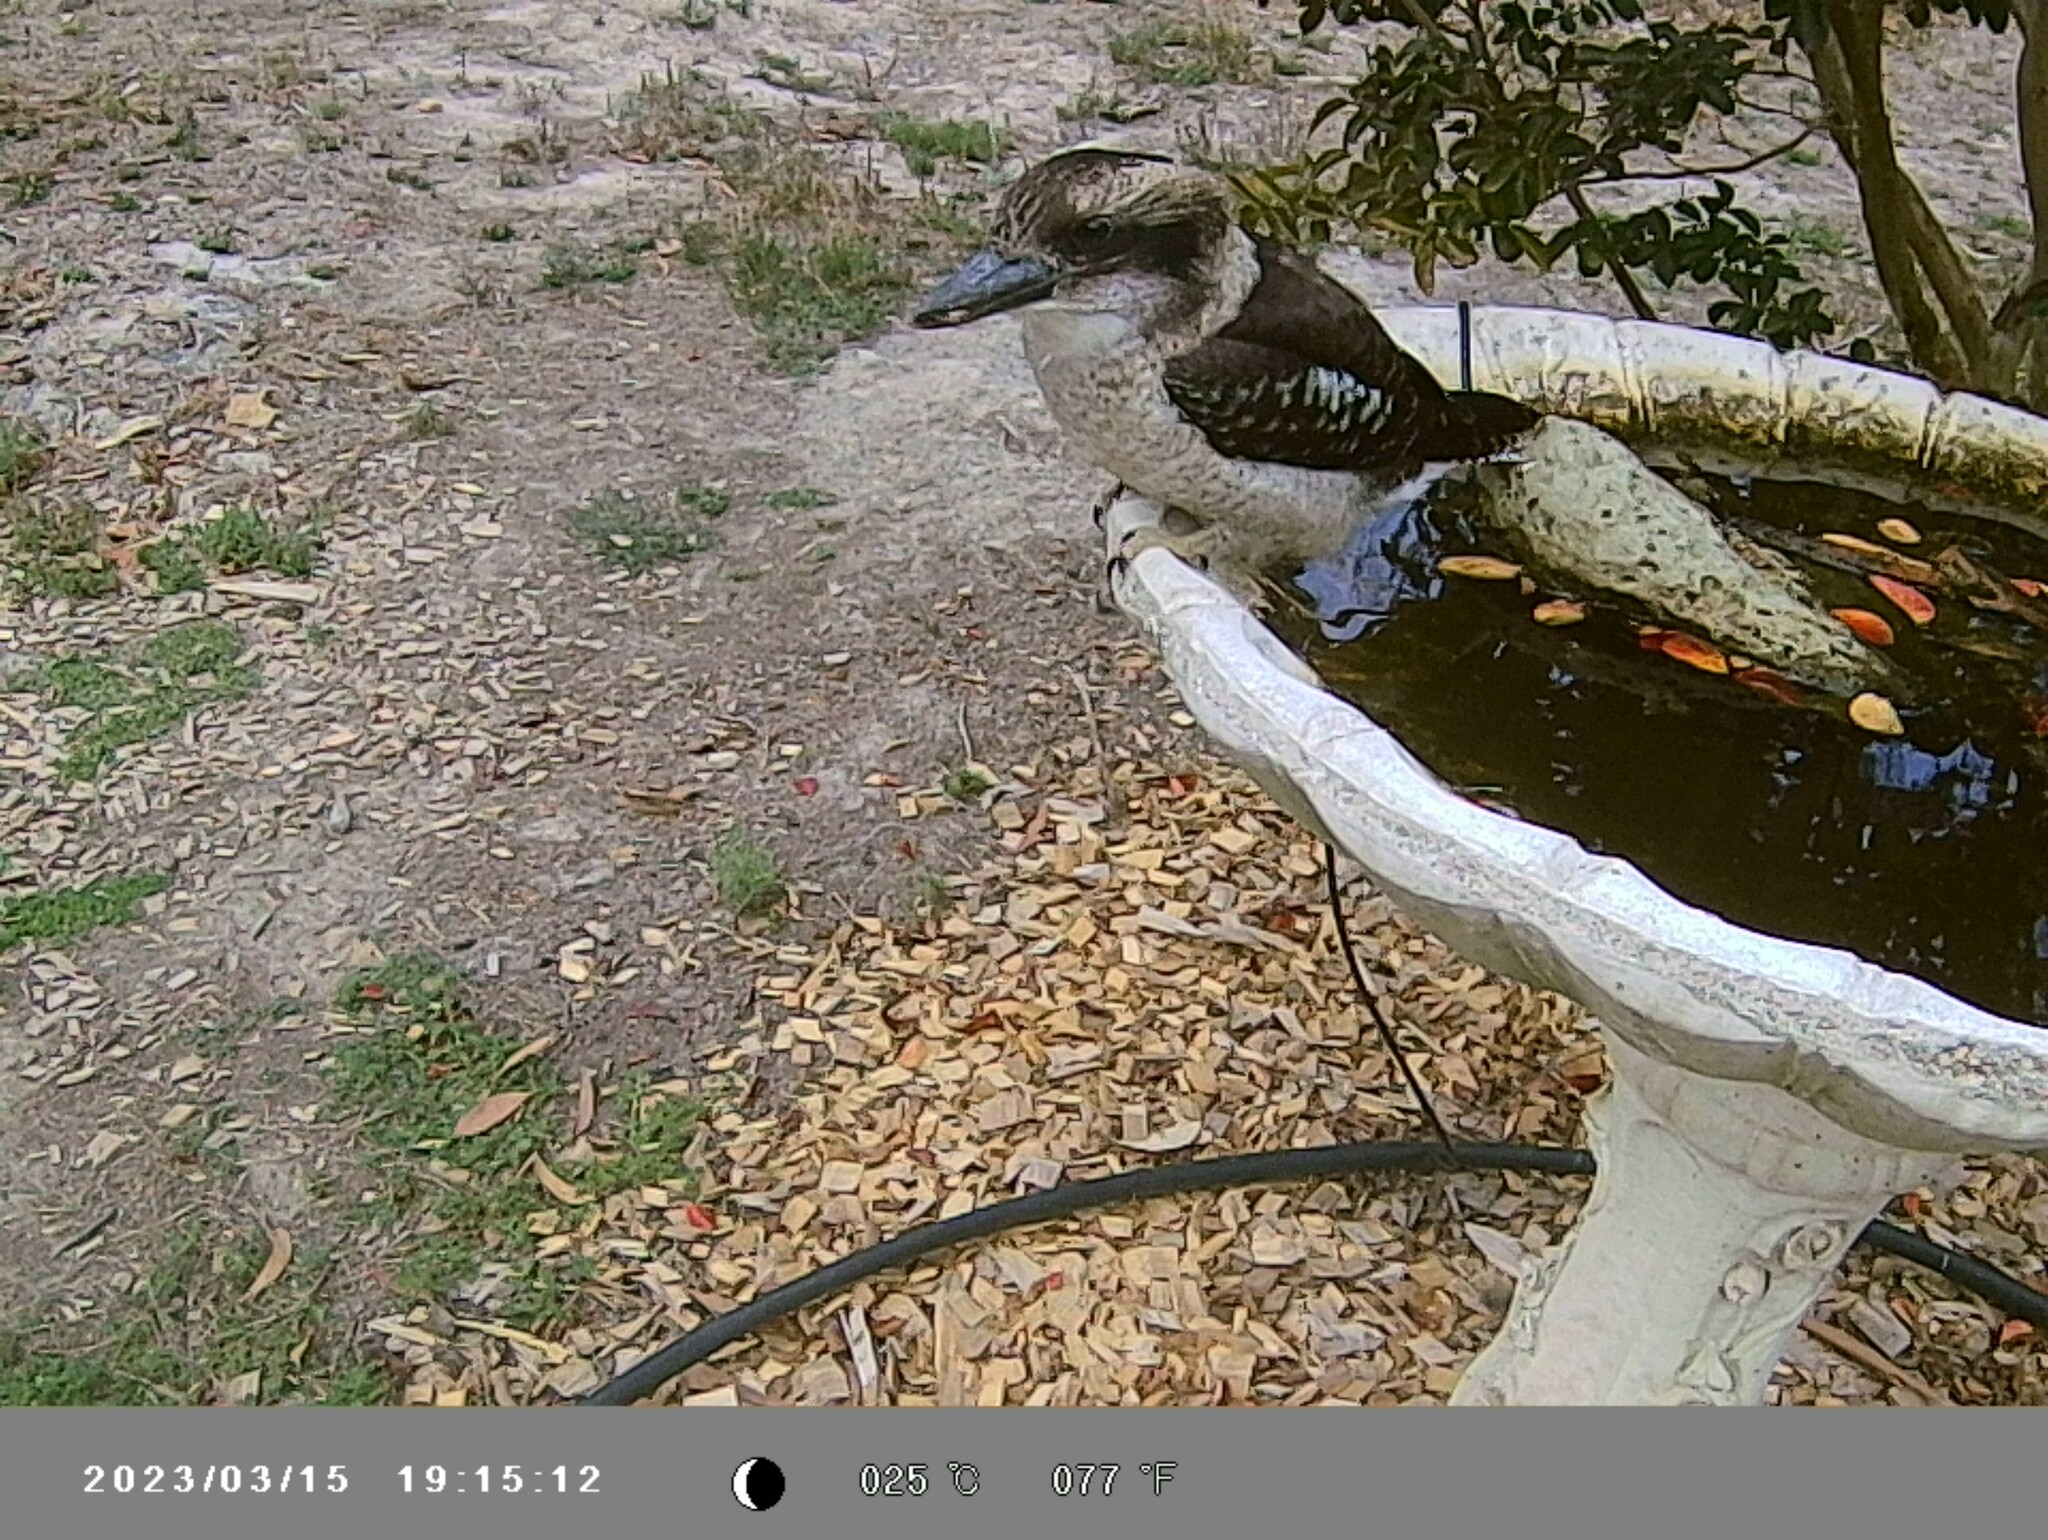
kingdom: Animalia
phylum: Chordata
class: Aves
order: Coraciiformes
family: Alcedinidae
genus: Dacelo
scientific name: Dacelo novaeguineae
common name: Laughing kookaburra
